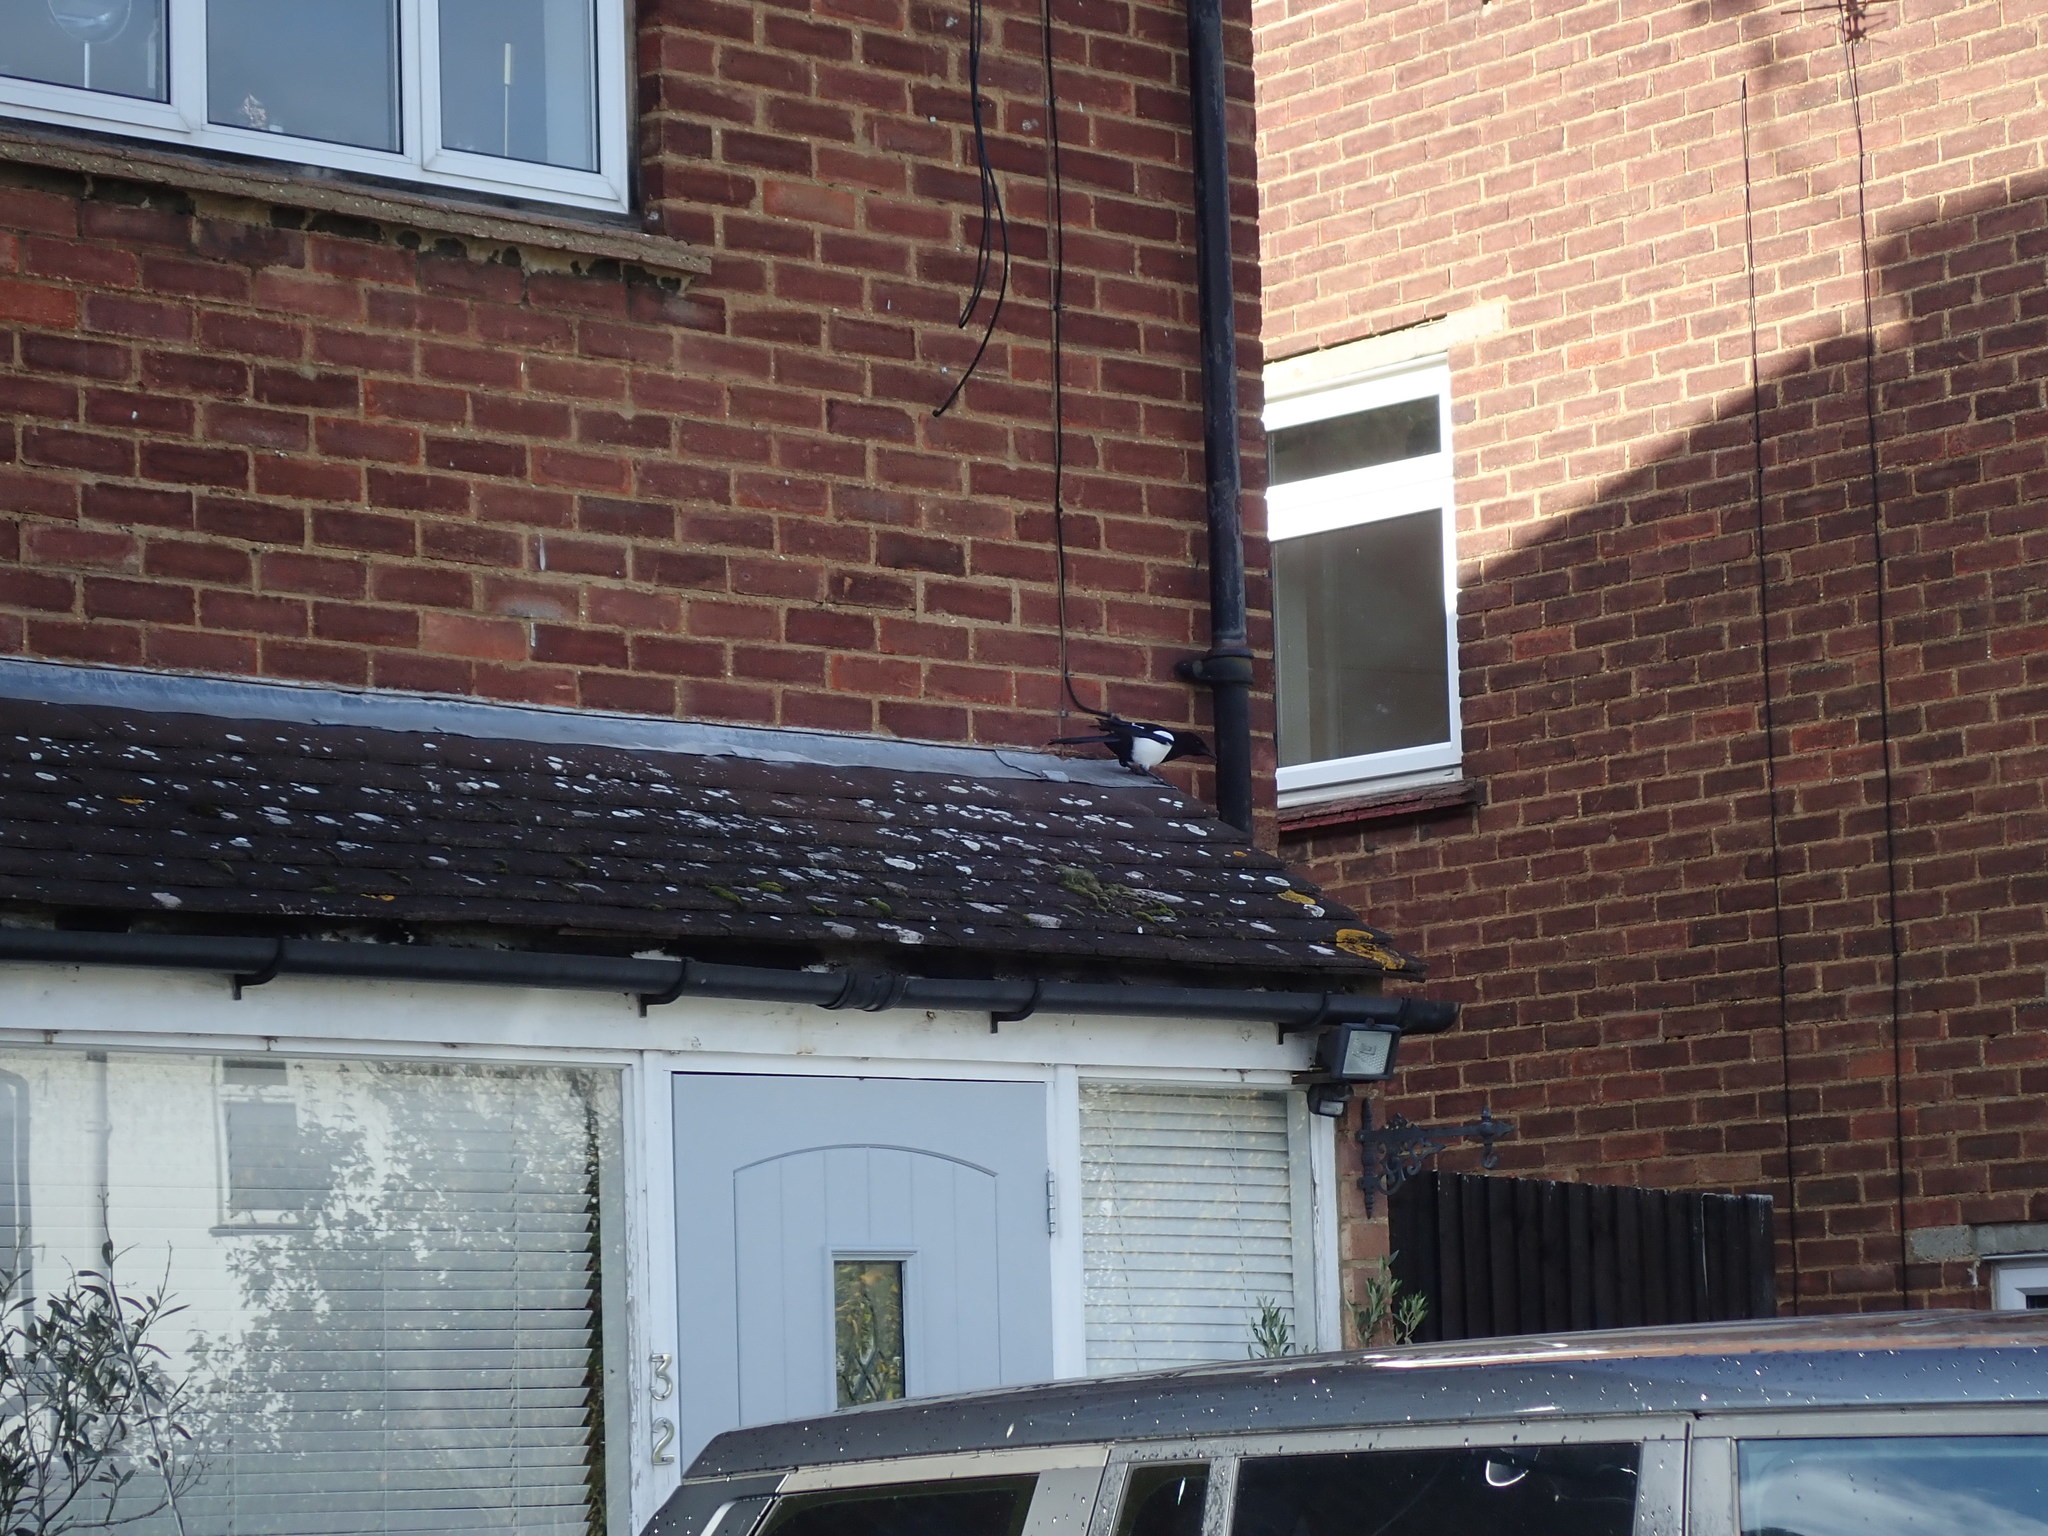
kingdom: Animalia
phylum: Chordata
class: Aves
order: Passeriformes
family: Corvidae
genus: Pica
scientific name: Pica pica
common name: Eurasian magpie
